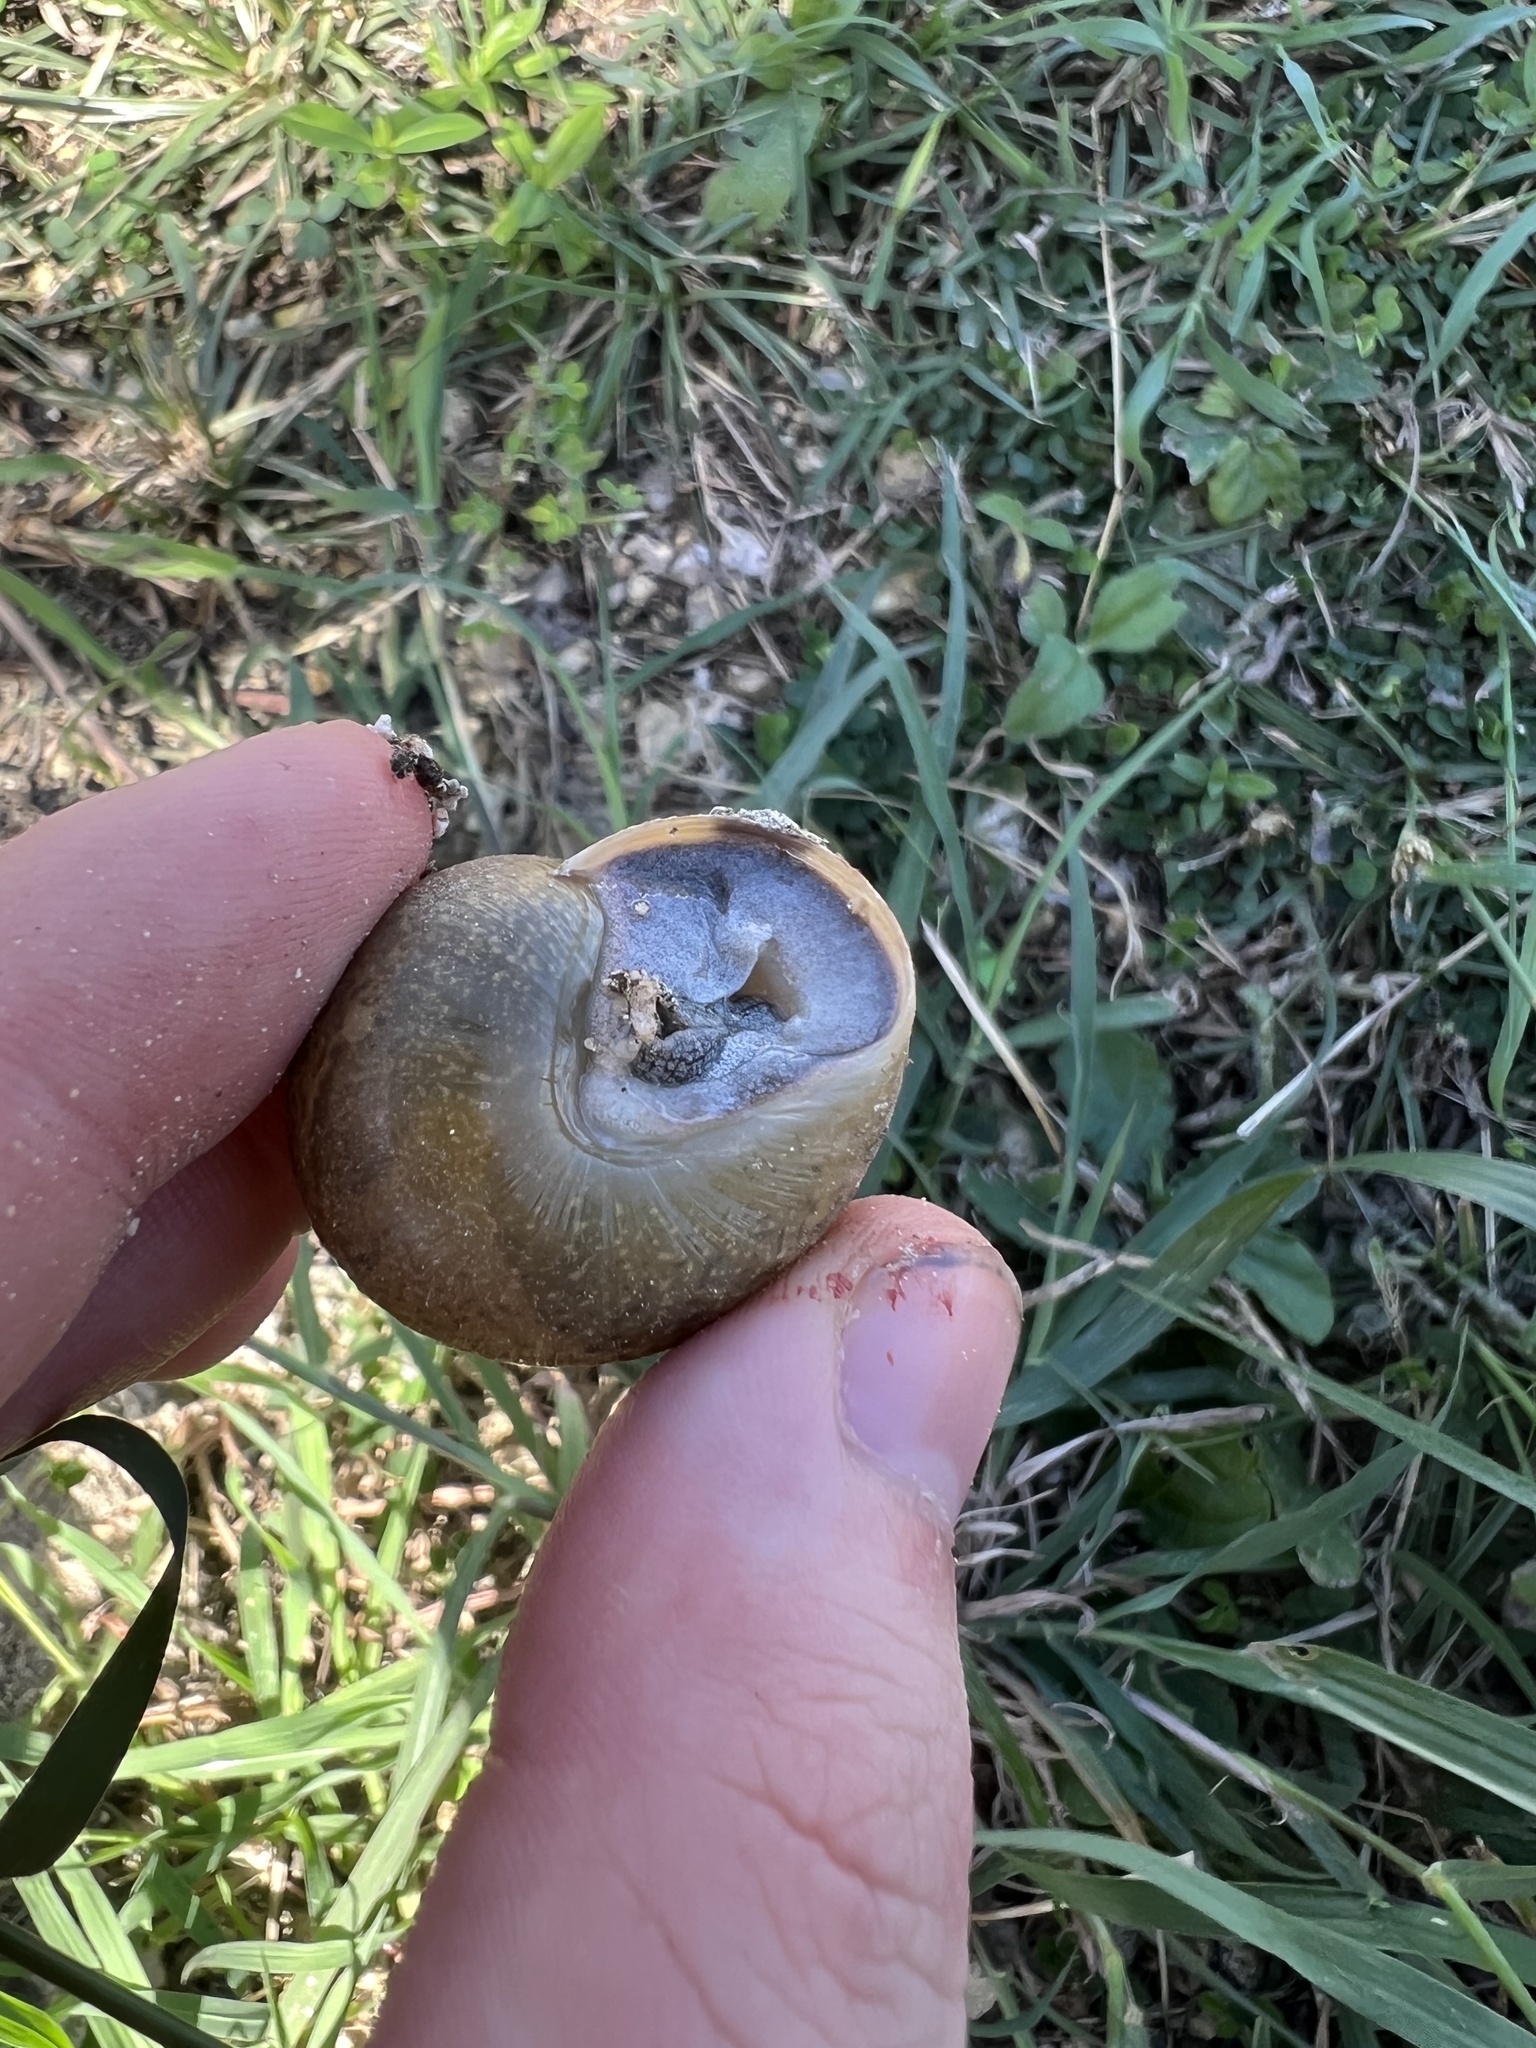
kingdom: Animalia
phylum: Mollusca
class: Gastropoda
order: Stylommatophora
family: Zachrysiidae
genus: Zachrysia
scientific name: Zachrysia provisoria
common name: Garden zachrysia
